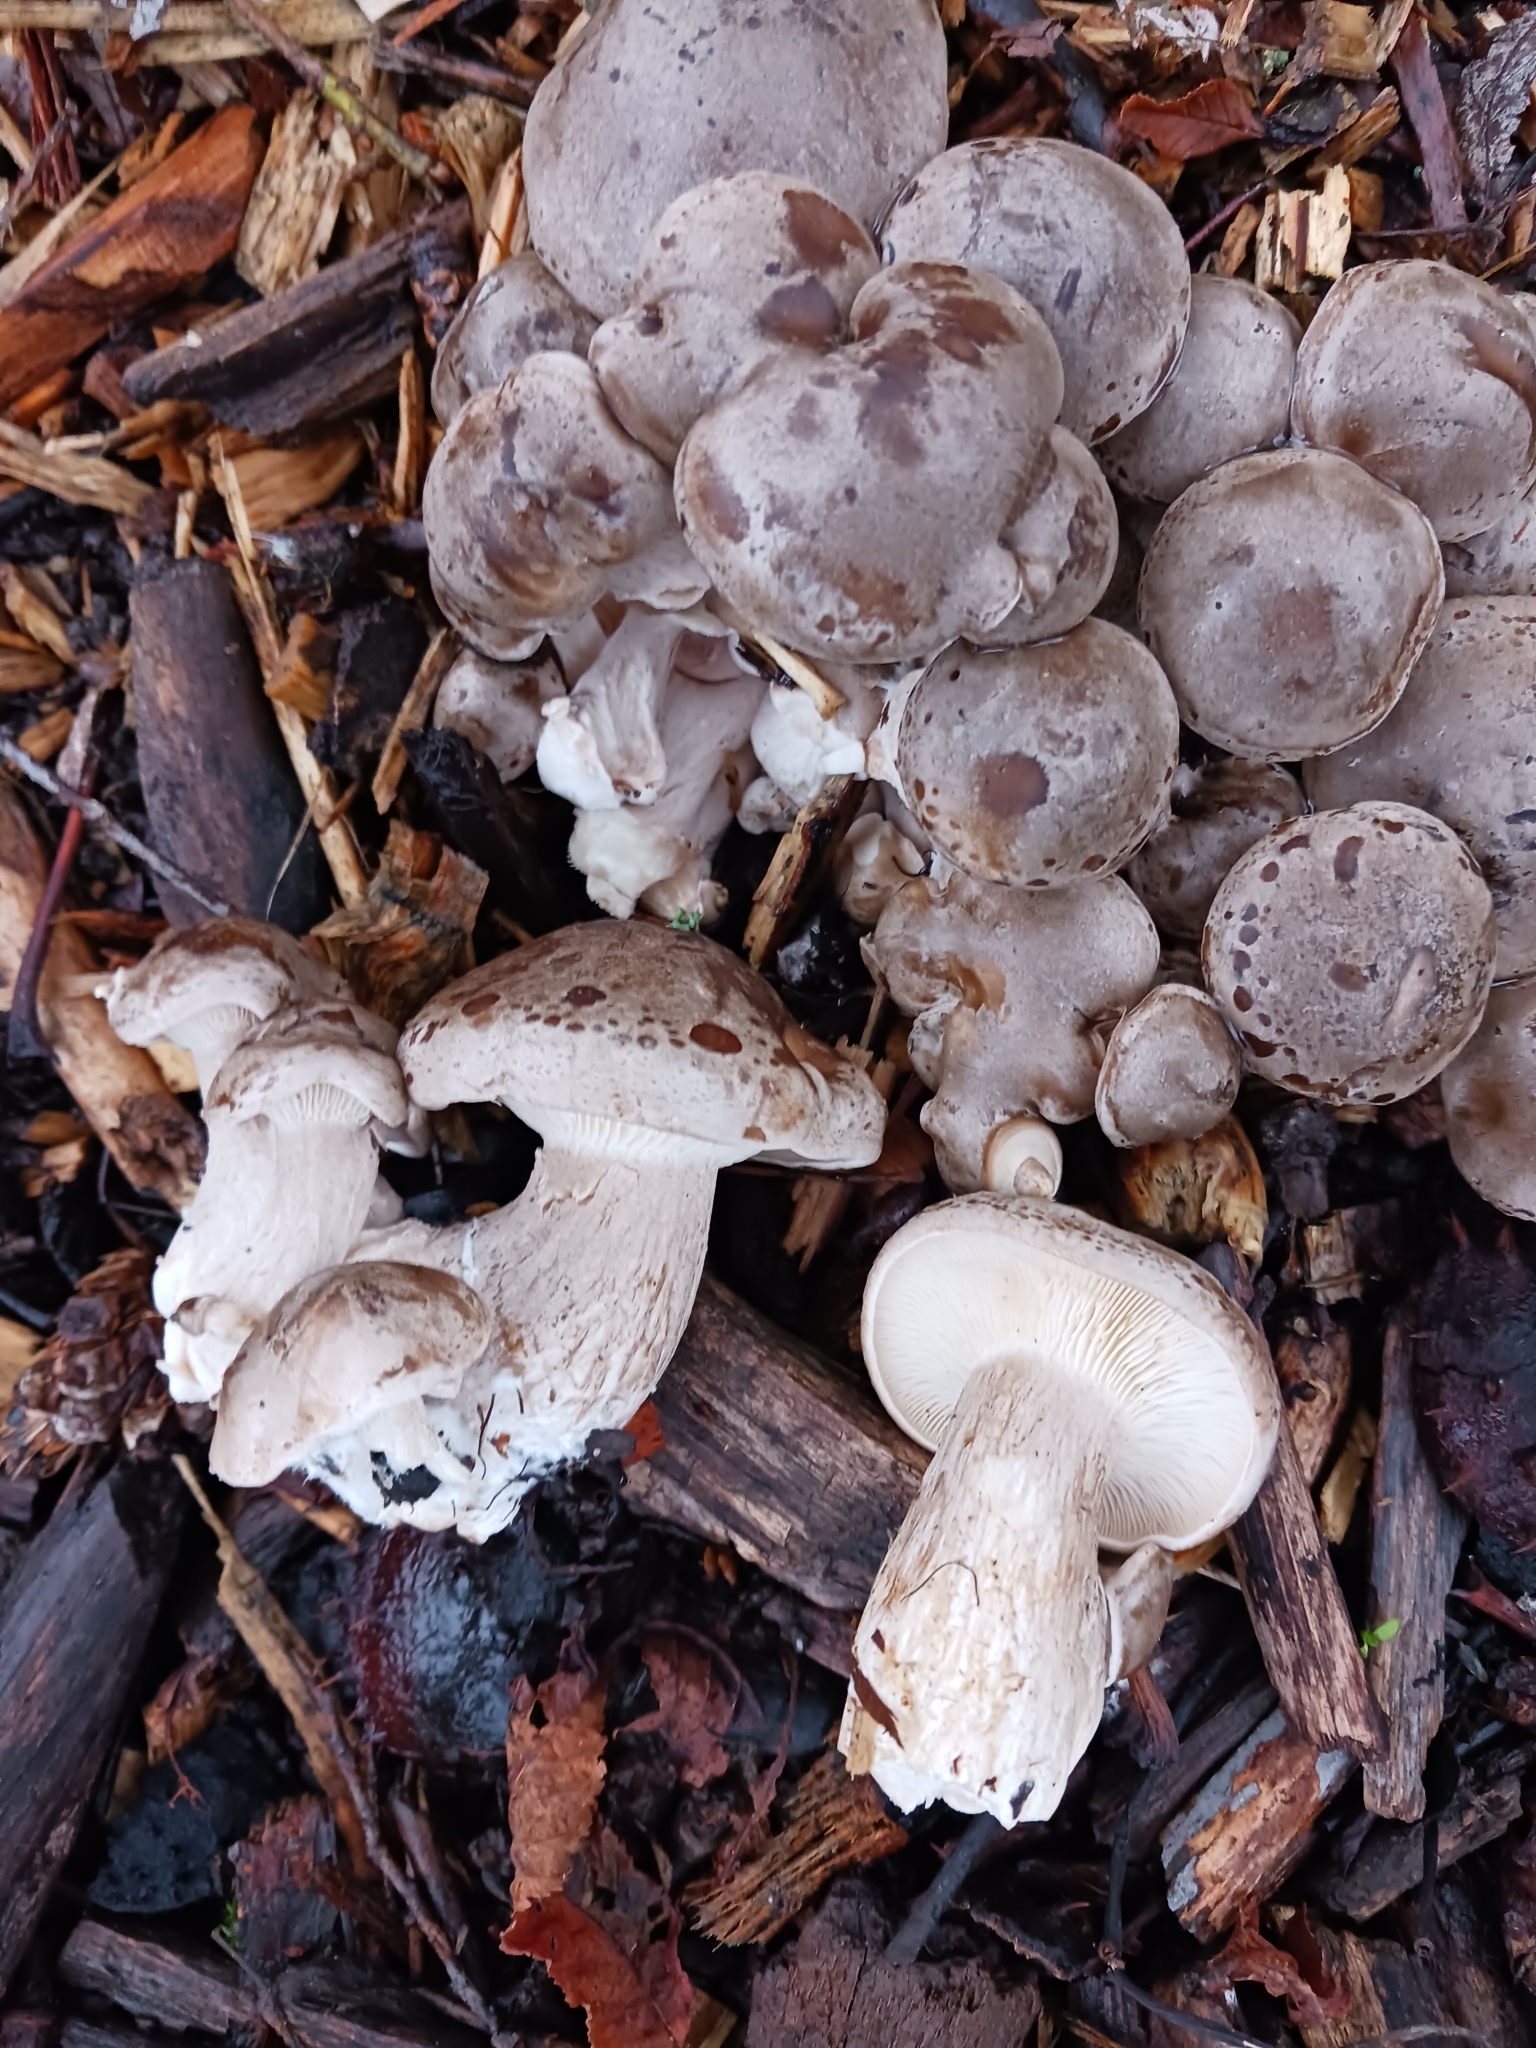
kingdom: Fungi
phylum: Basidiomycota
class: Agaricomycetes
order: Agaricales
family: Tricholomataceae
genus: Clitocybe
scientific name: Clitocybe nebularis
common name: Clouded agaric
